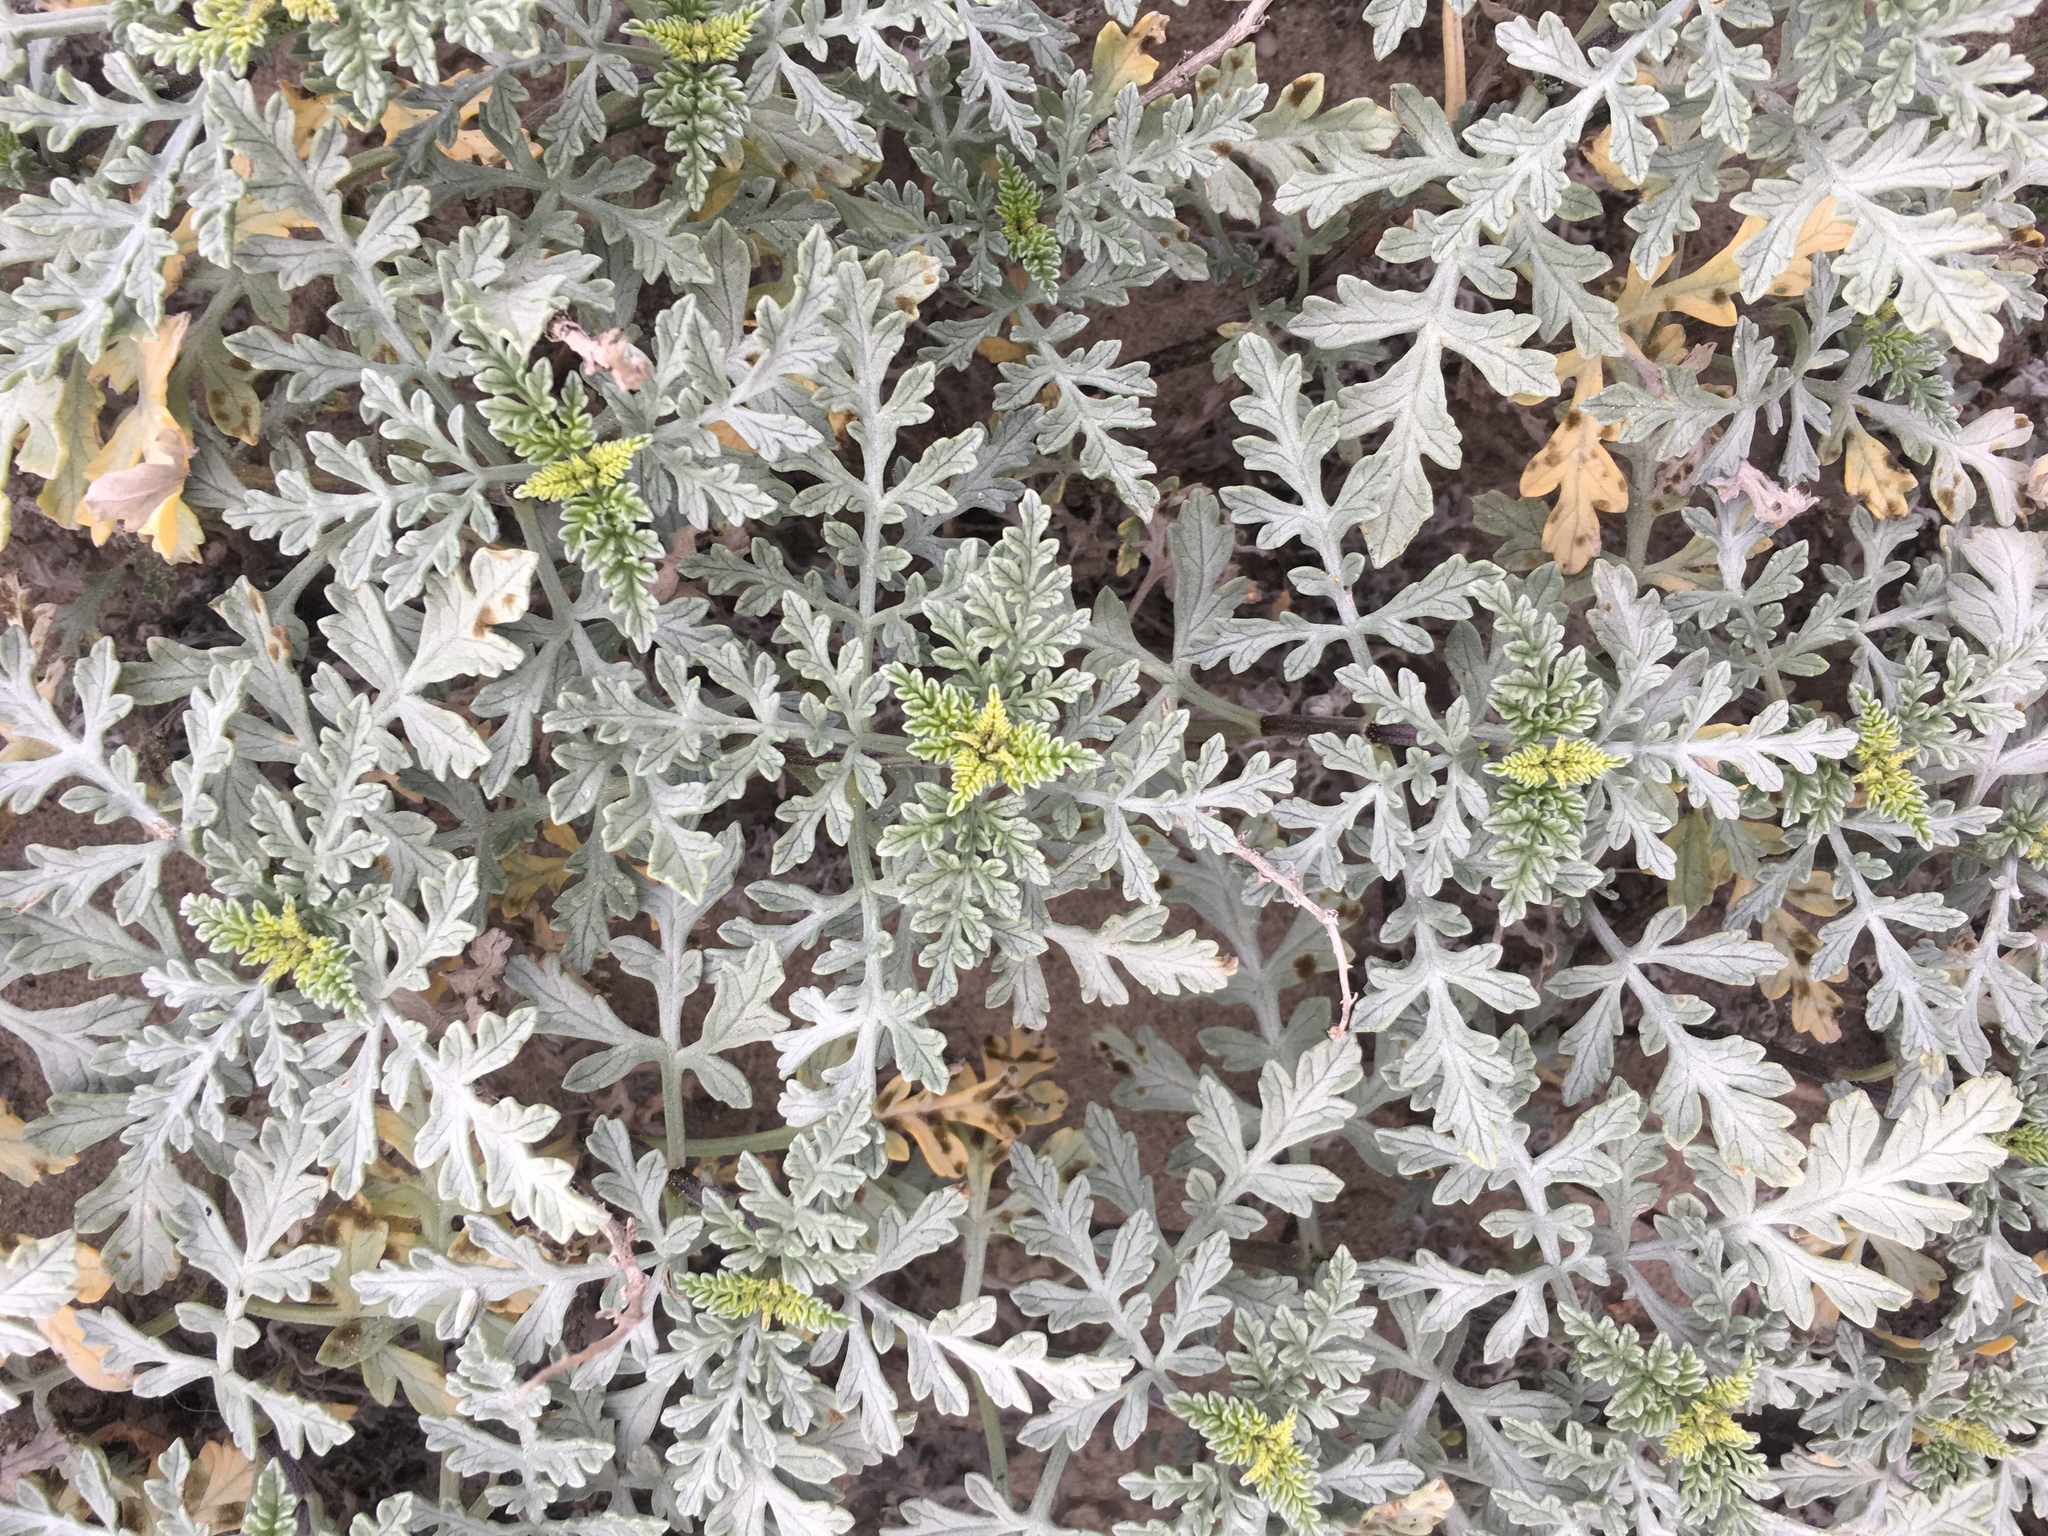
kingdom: Plantae
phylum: Tracheophyta
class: Magnoliopsida
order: Asterales
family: Asteraceae
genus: Ambrosia
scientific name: Ambrosia chamissonis
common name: Beachbur
